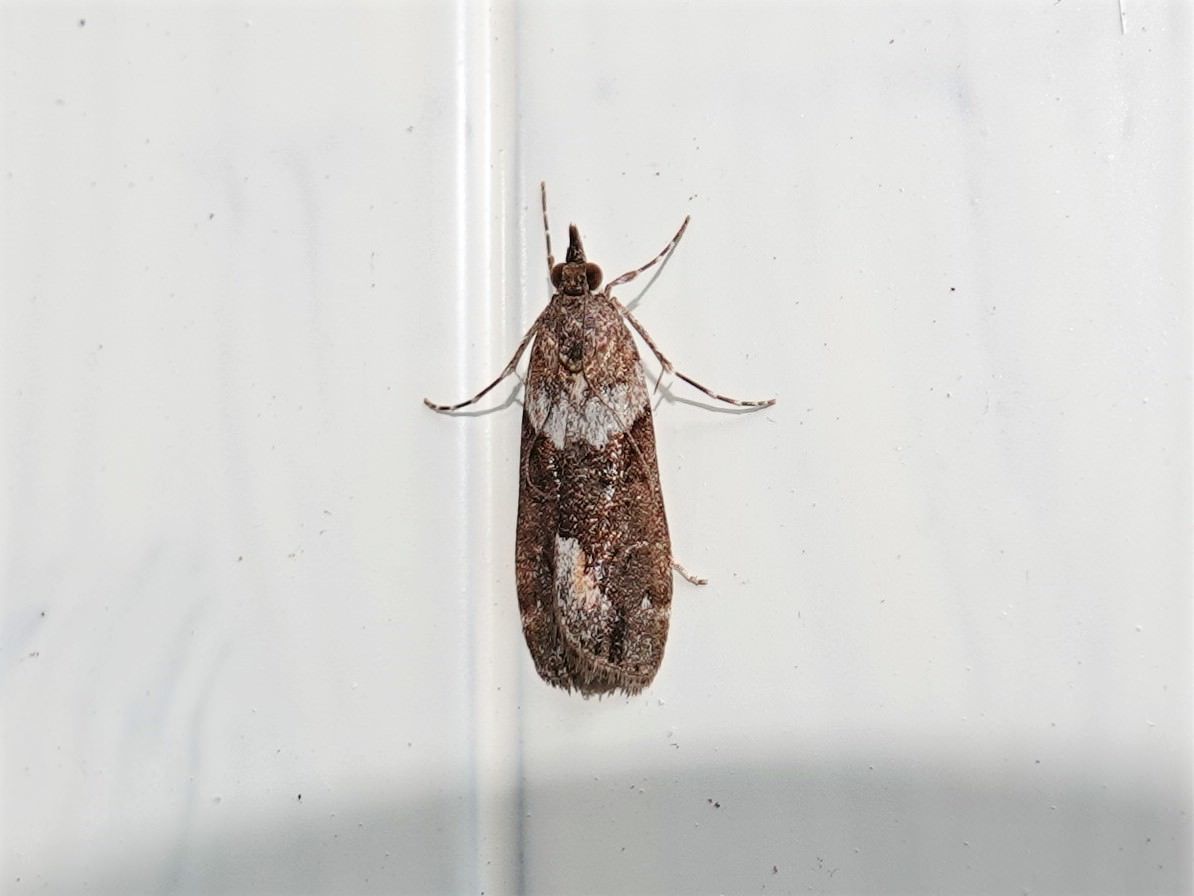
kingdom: Animalia
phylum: Arthropoda
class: Insecta
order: Lepidoptera
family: Crambidae
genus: Eudonia
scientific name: Eudonia submarginalis
